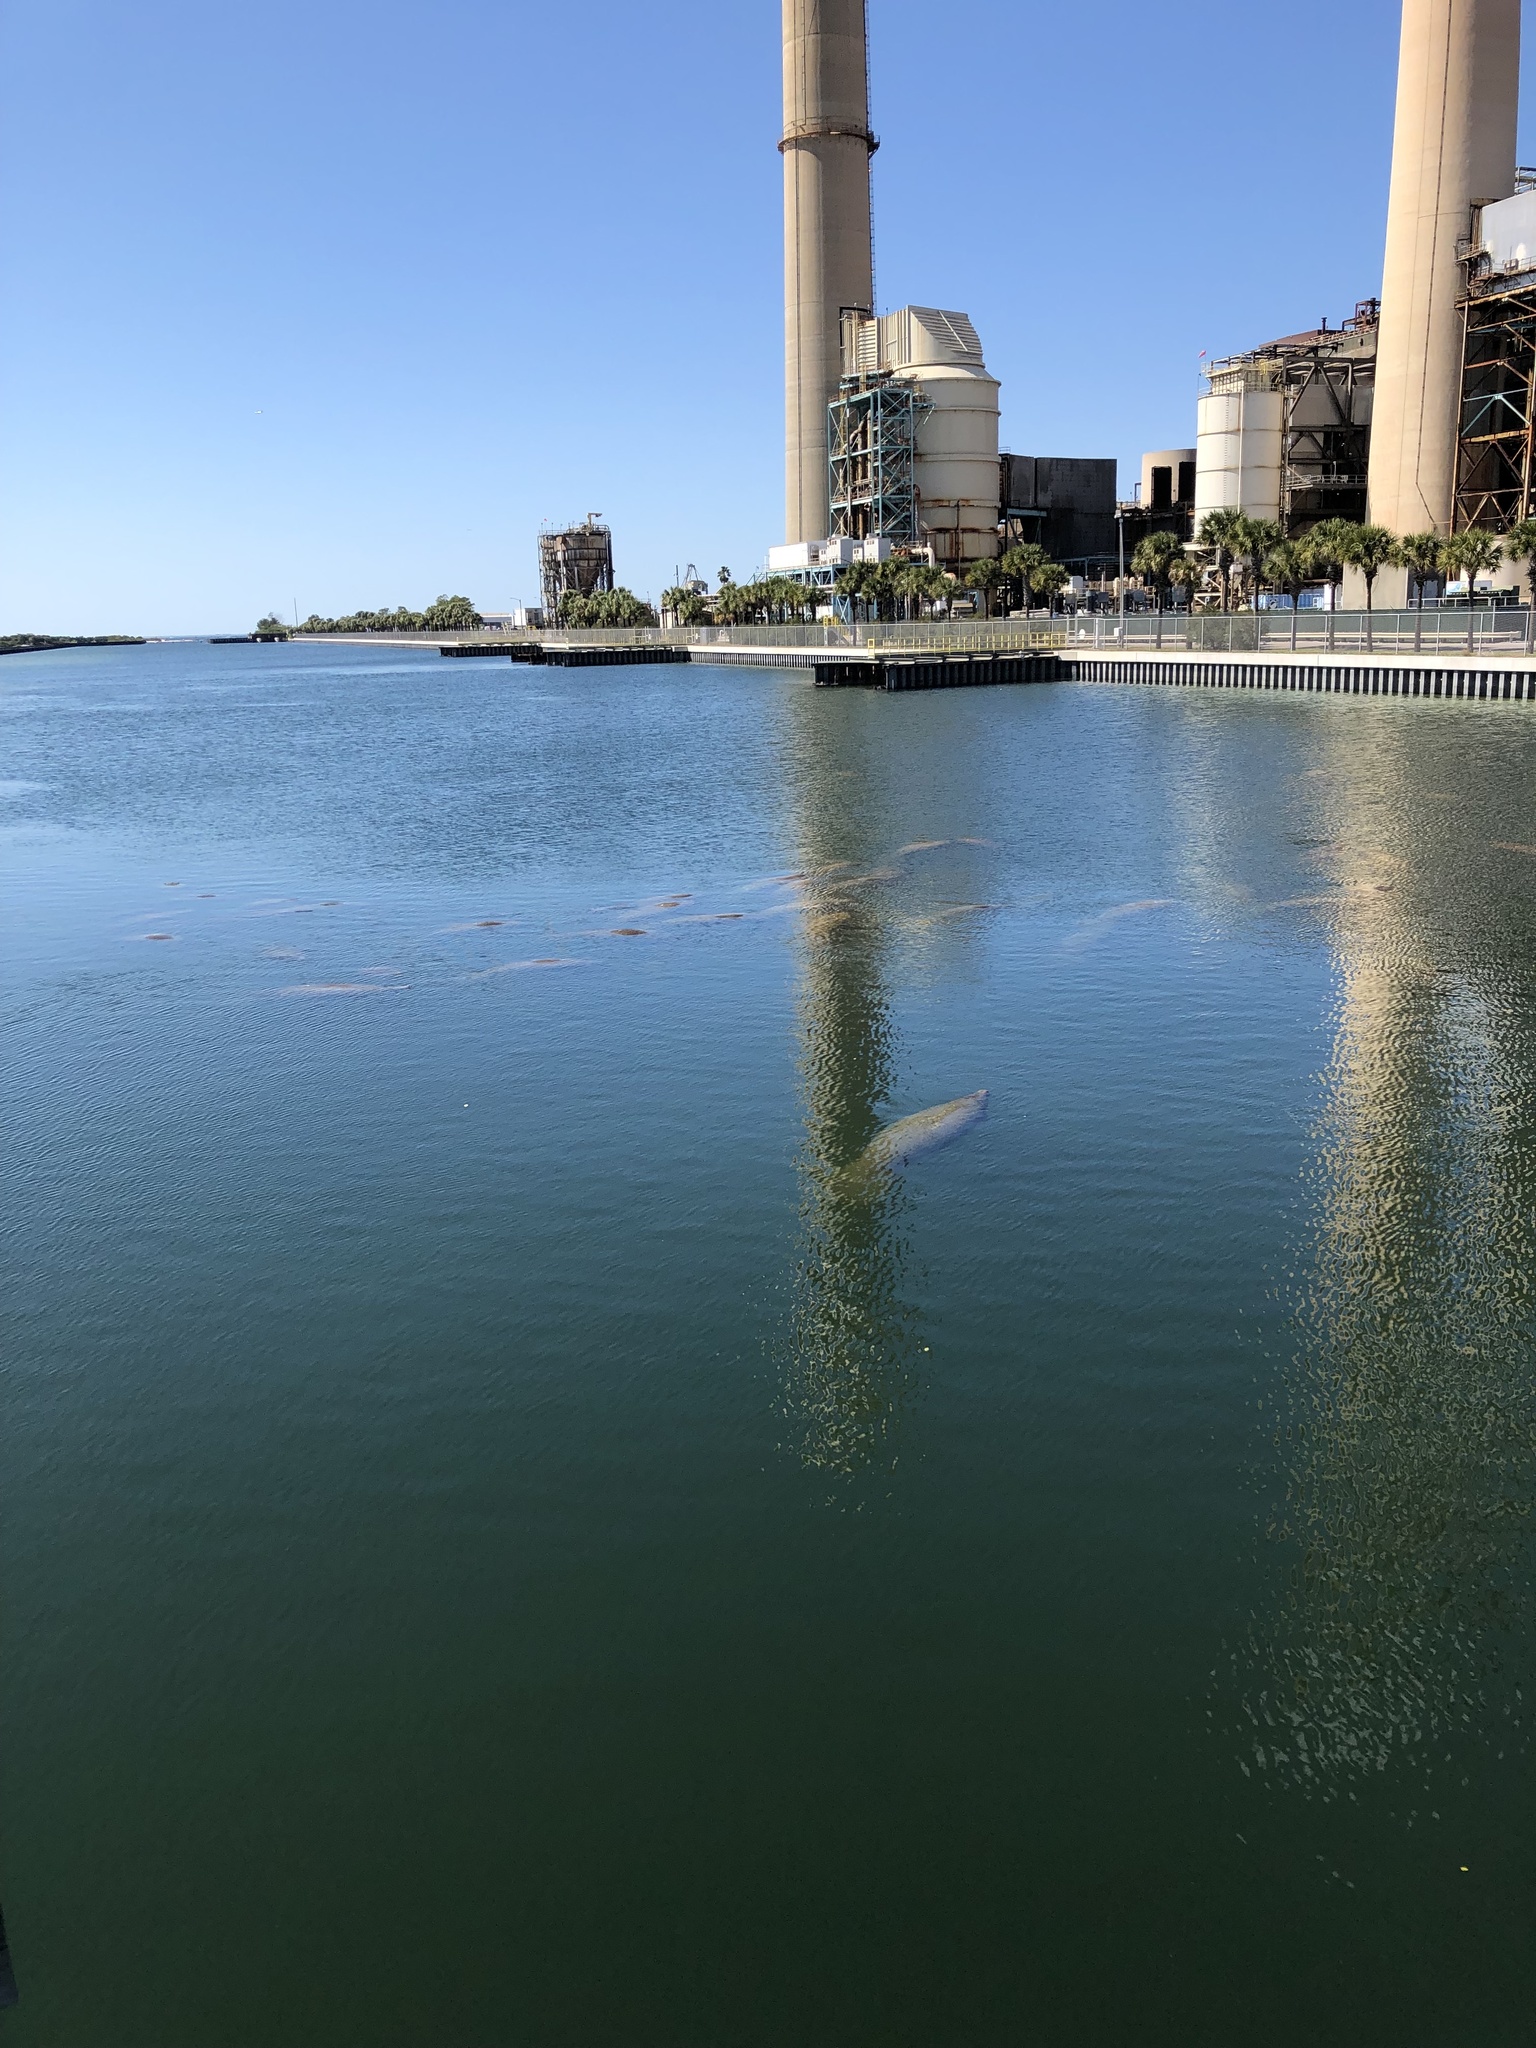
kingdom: Animalia
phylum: Chordata
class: Mammalia
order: Sirenia
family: Trichechidae
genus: Trichechus
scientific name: Trichechus manatus
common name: West indian manatee
